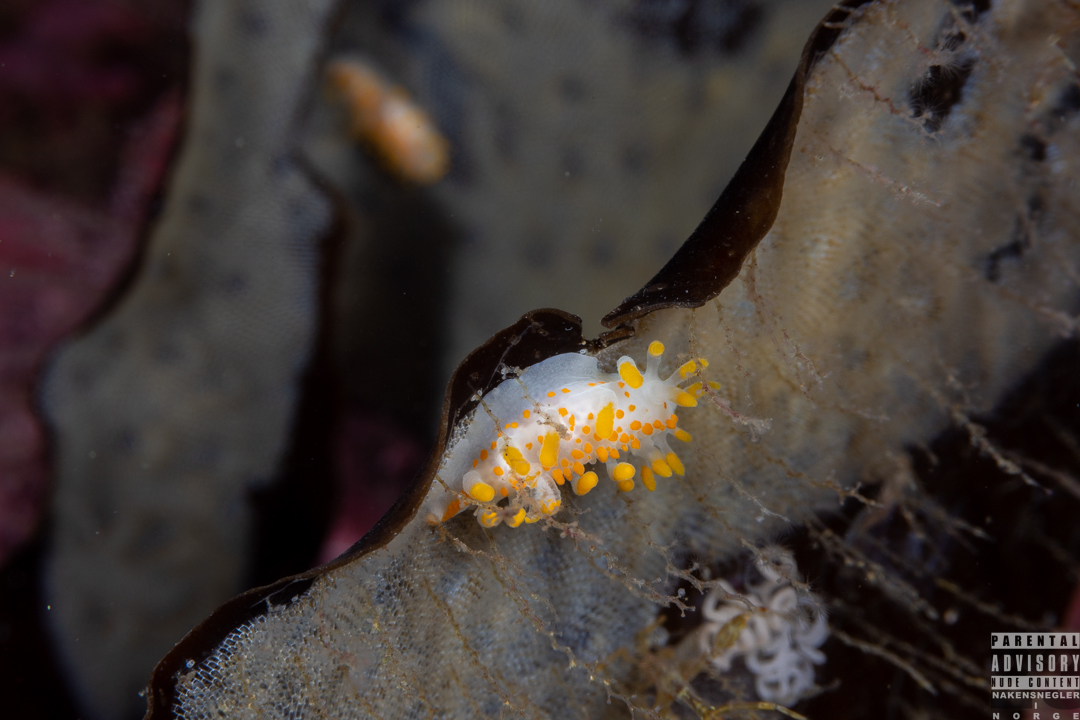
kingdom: Animalia
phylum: Mollusca
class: Gastropoda
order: Nudibranchia
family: Polyceridae
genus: Limacia
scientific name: Limacia clavigera
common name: Orange-clubbed sea slug
